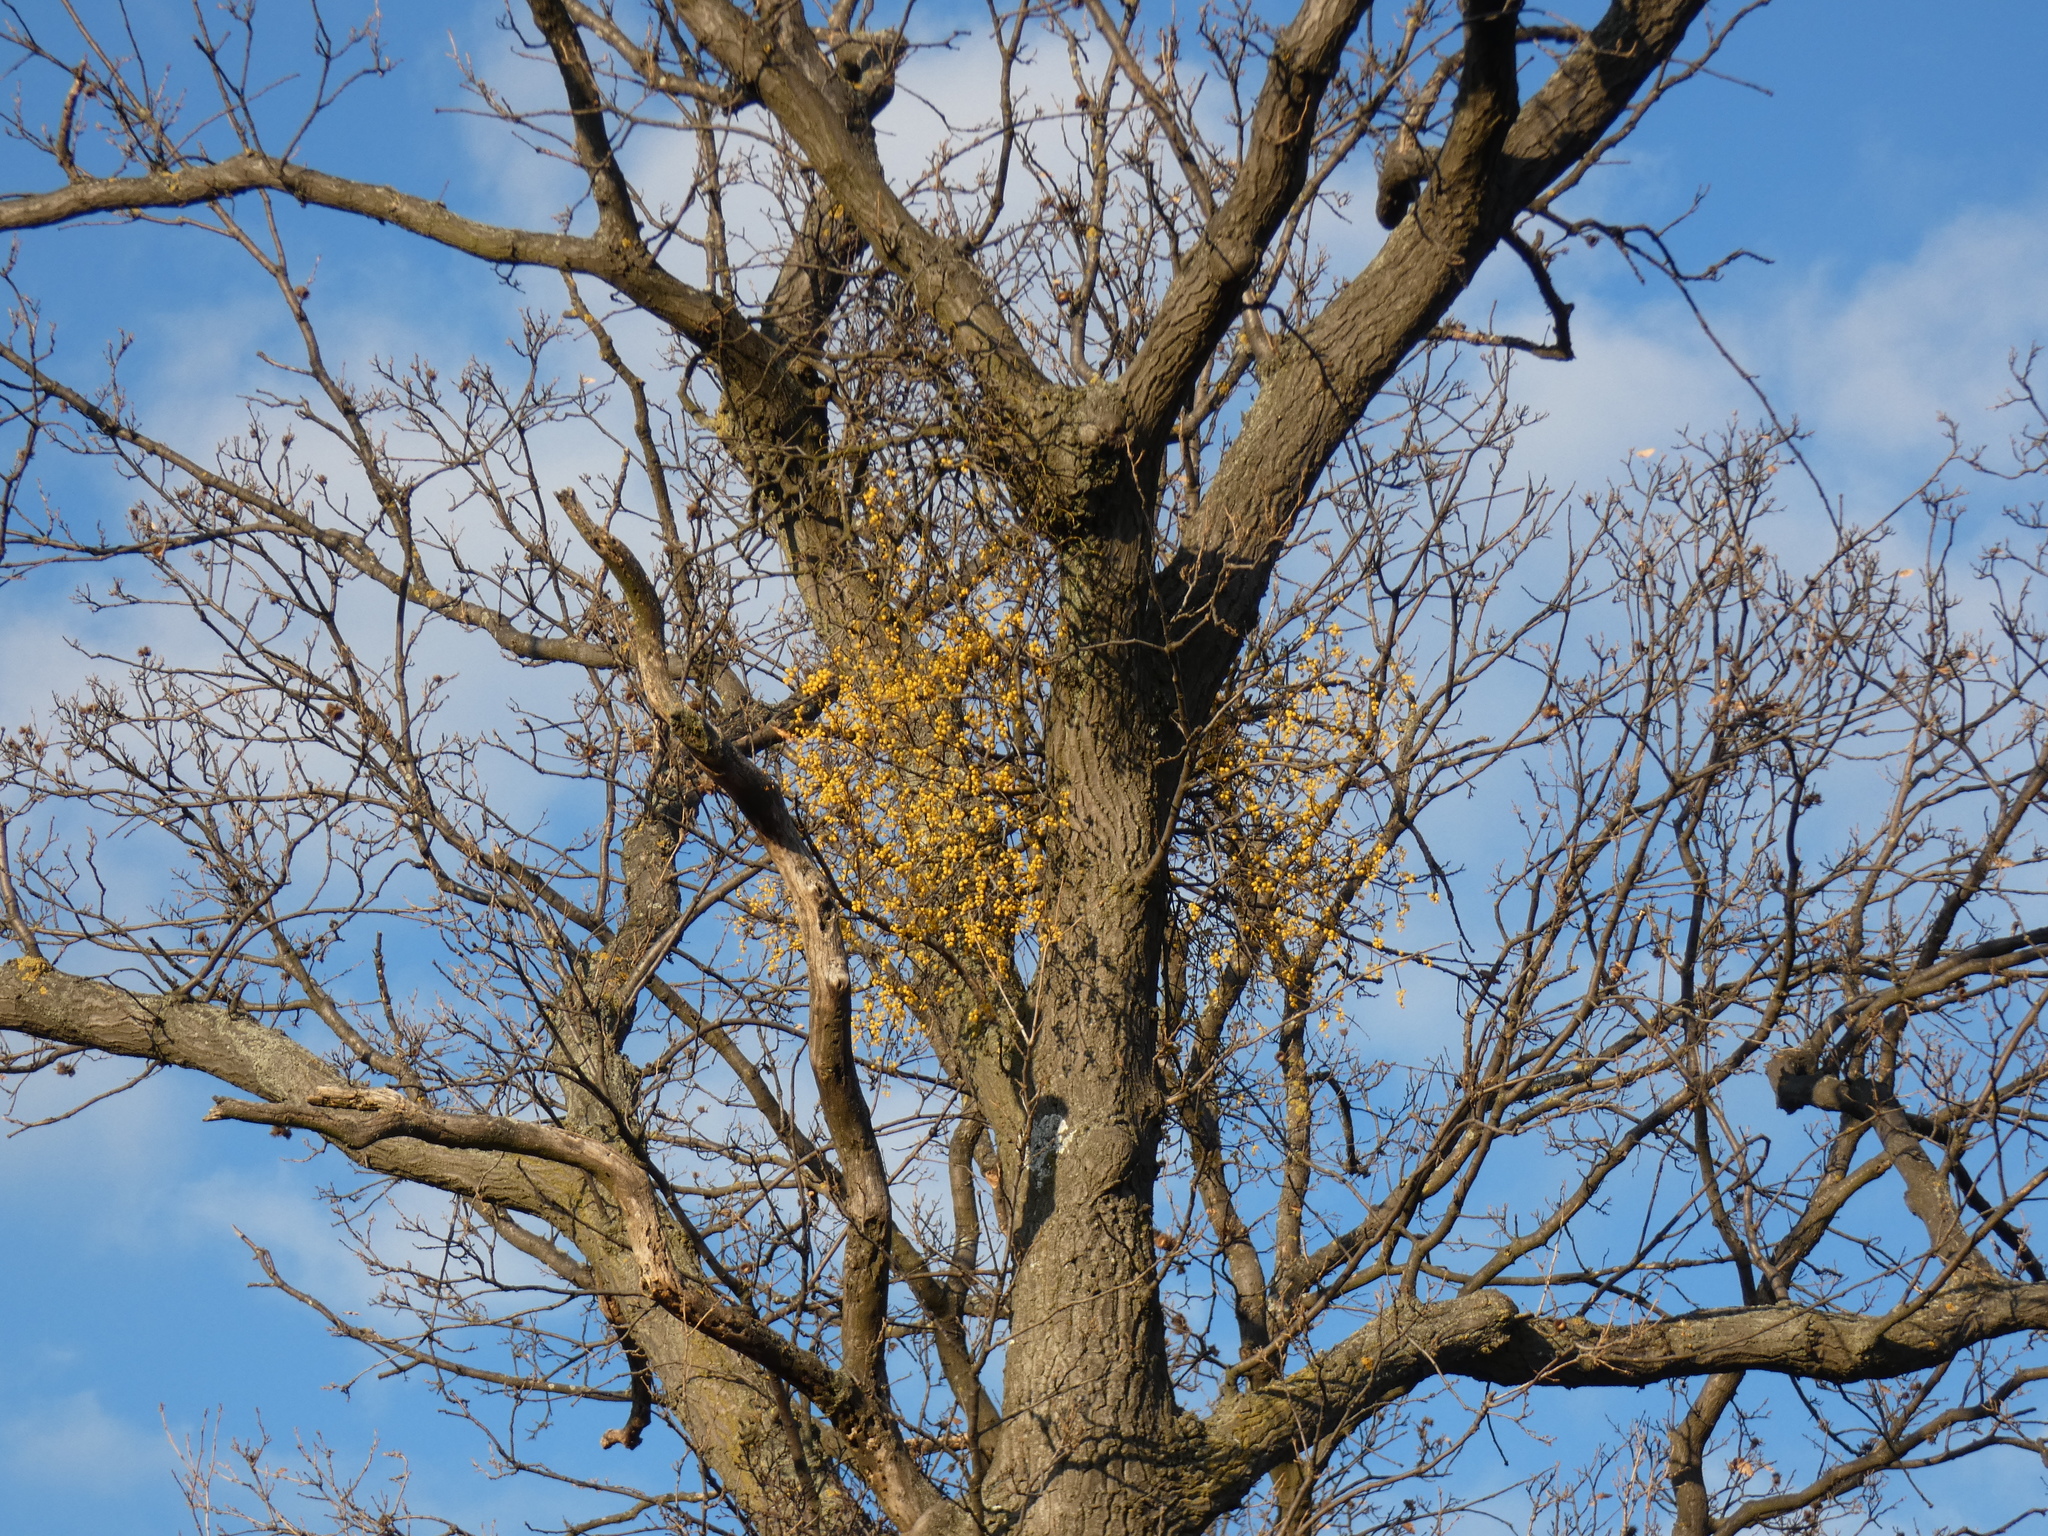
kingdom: Plantae
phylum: Tracheophyta
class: Magnoliopsida
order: Santalales
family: Loranthaceae
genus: Loranthus
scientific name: Loranthus europaeus
